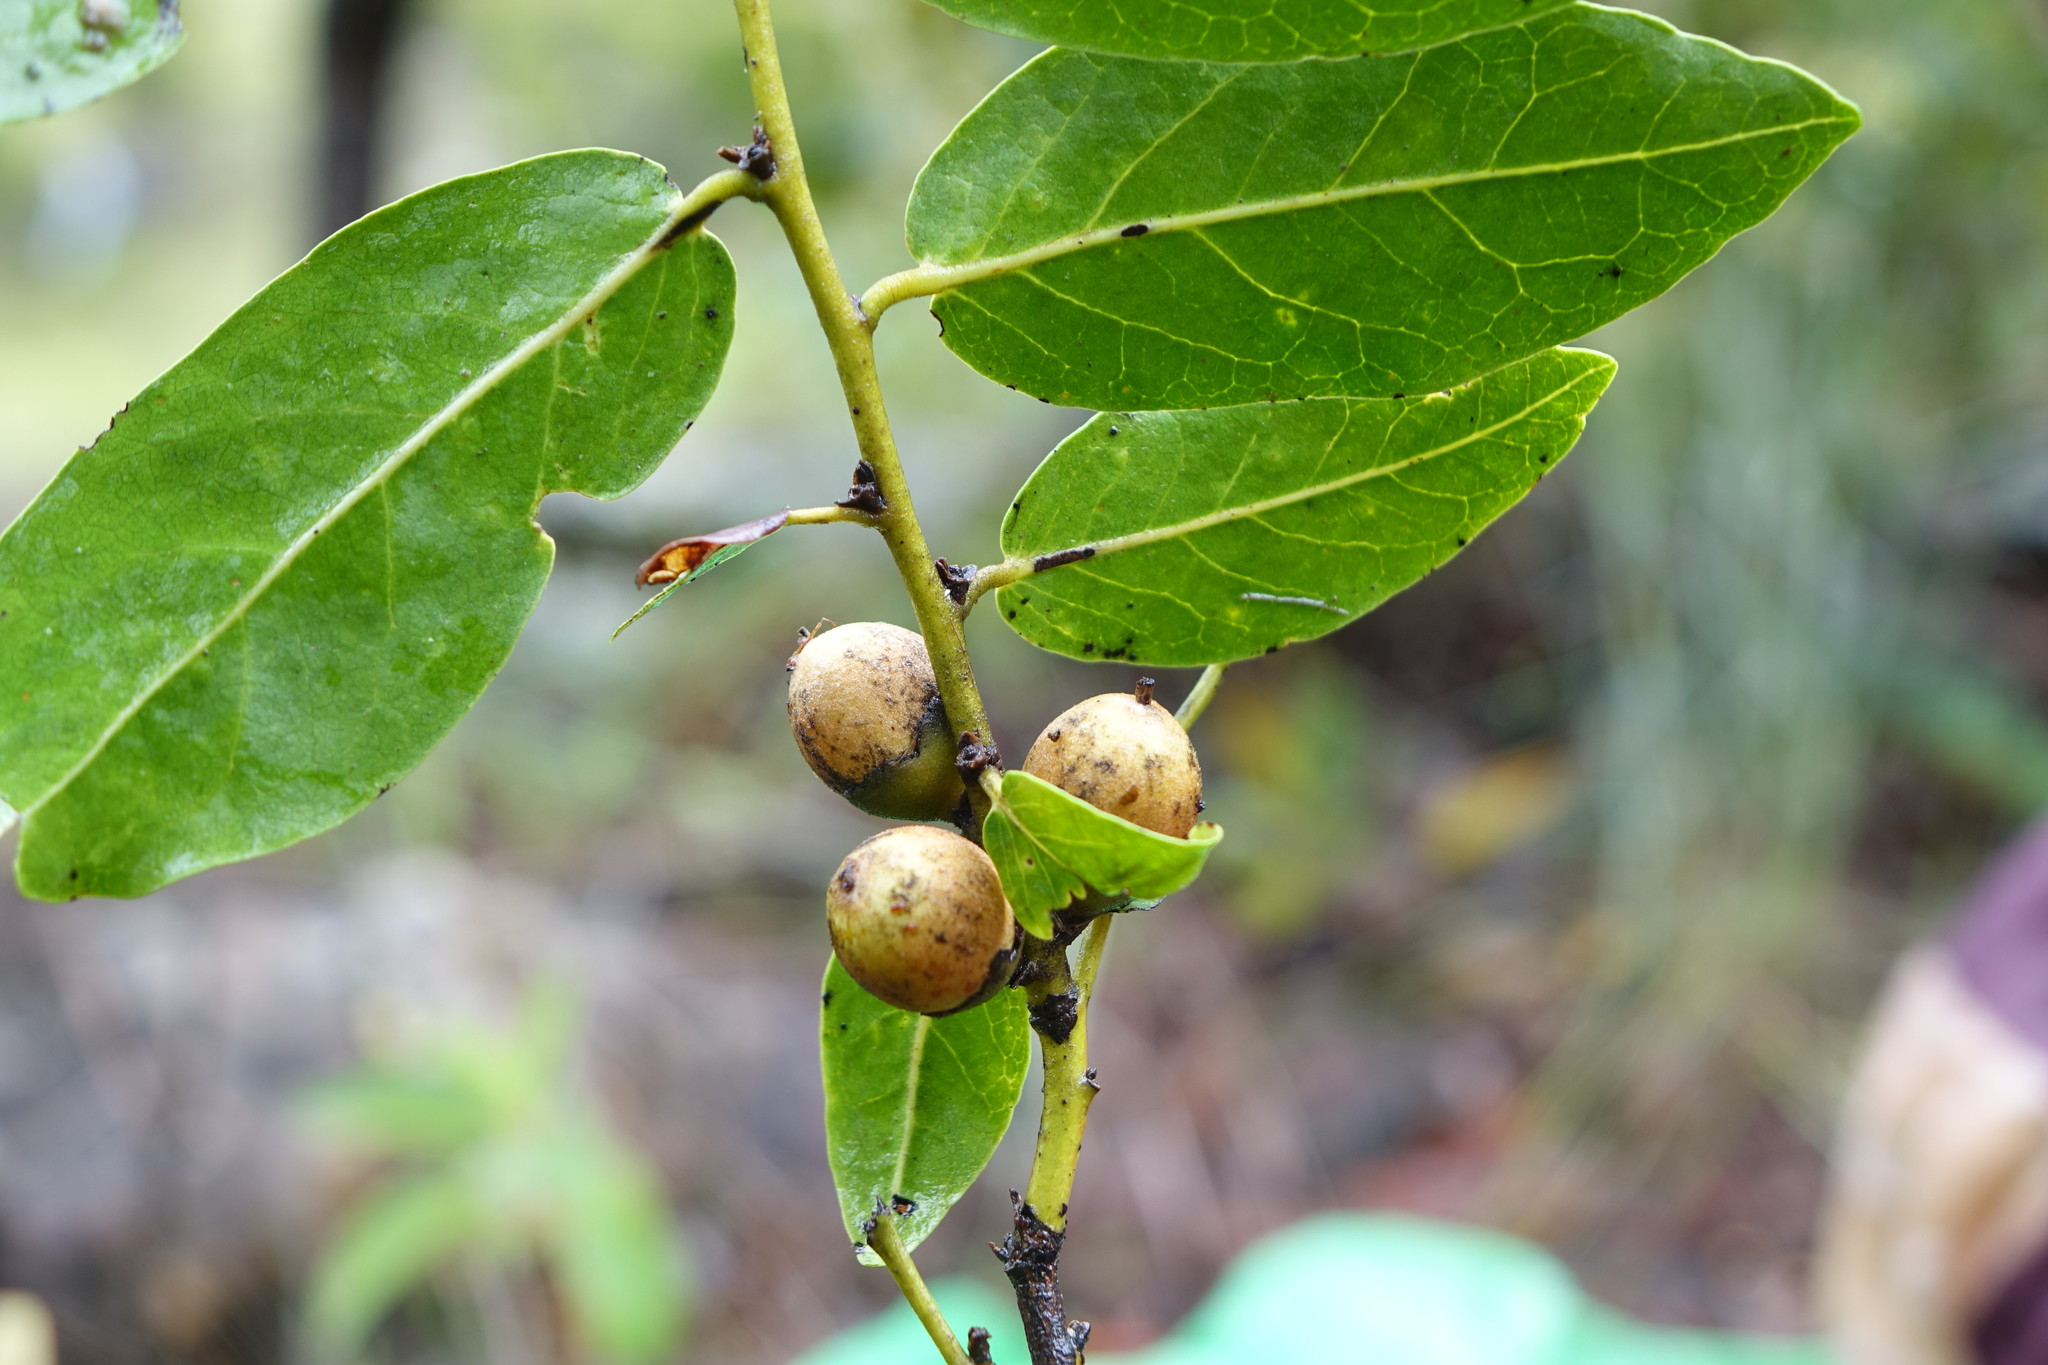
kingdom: Plantae
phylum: Tracheophyta
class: Magnoliopsida
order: Ericales
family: Ebenaceae
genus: Diospyros
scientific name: Diospyros cinnamomoides
